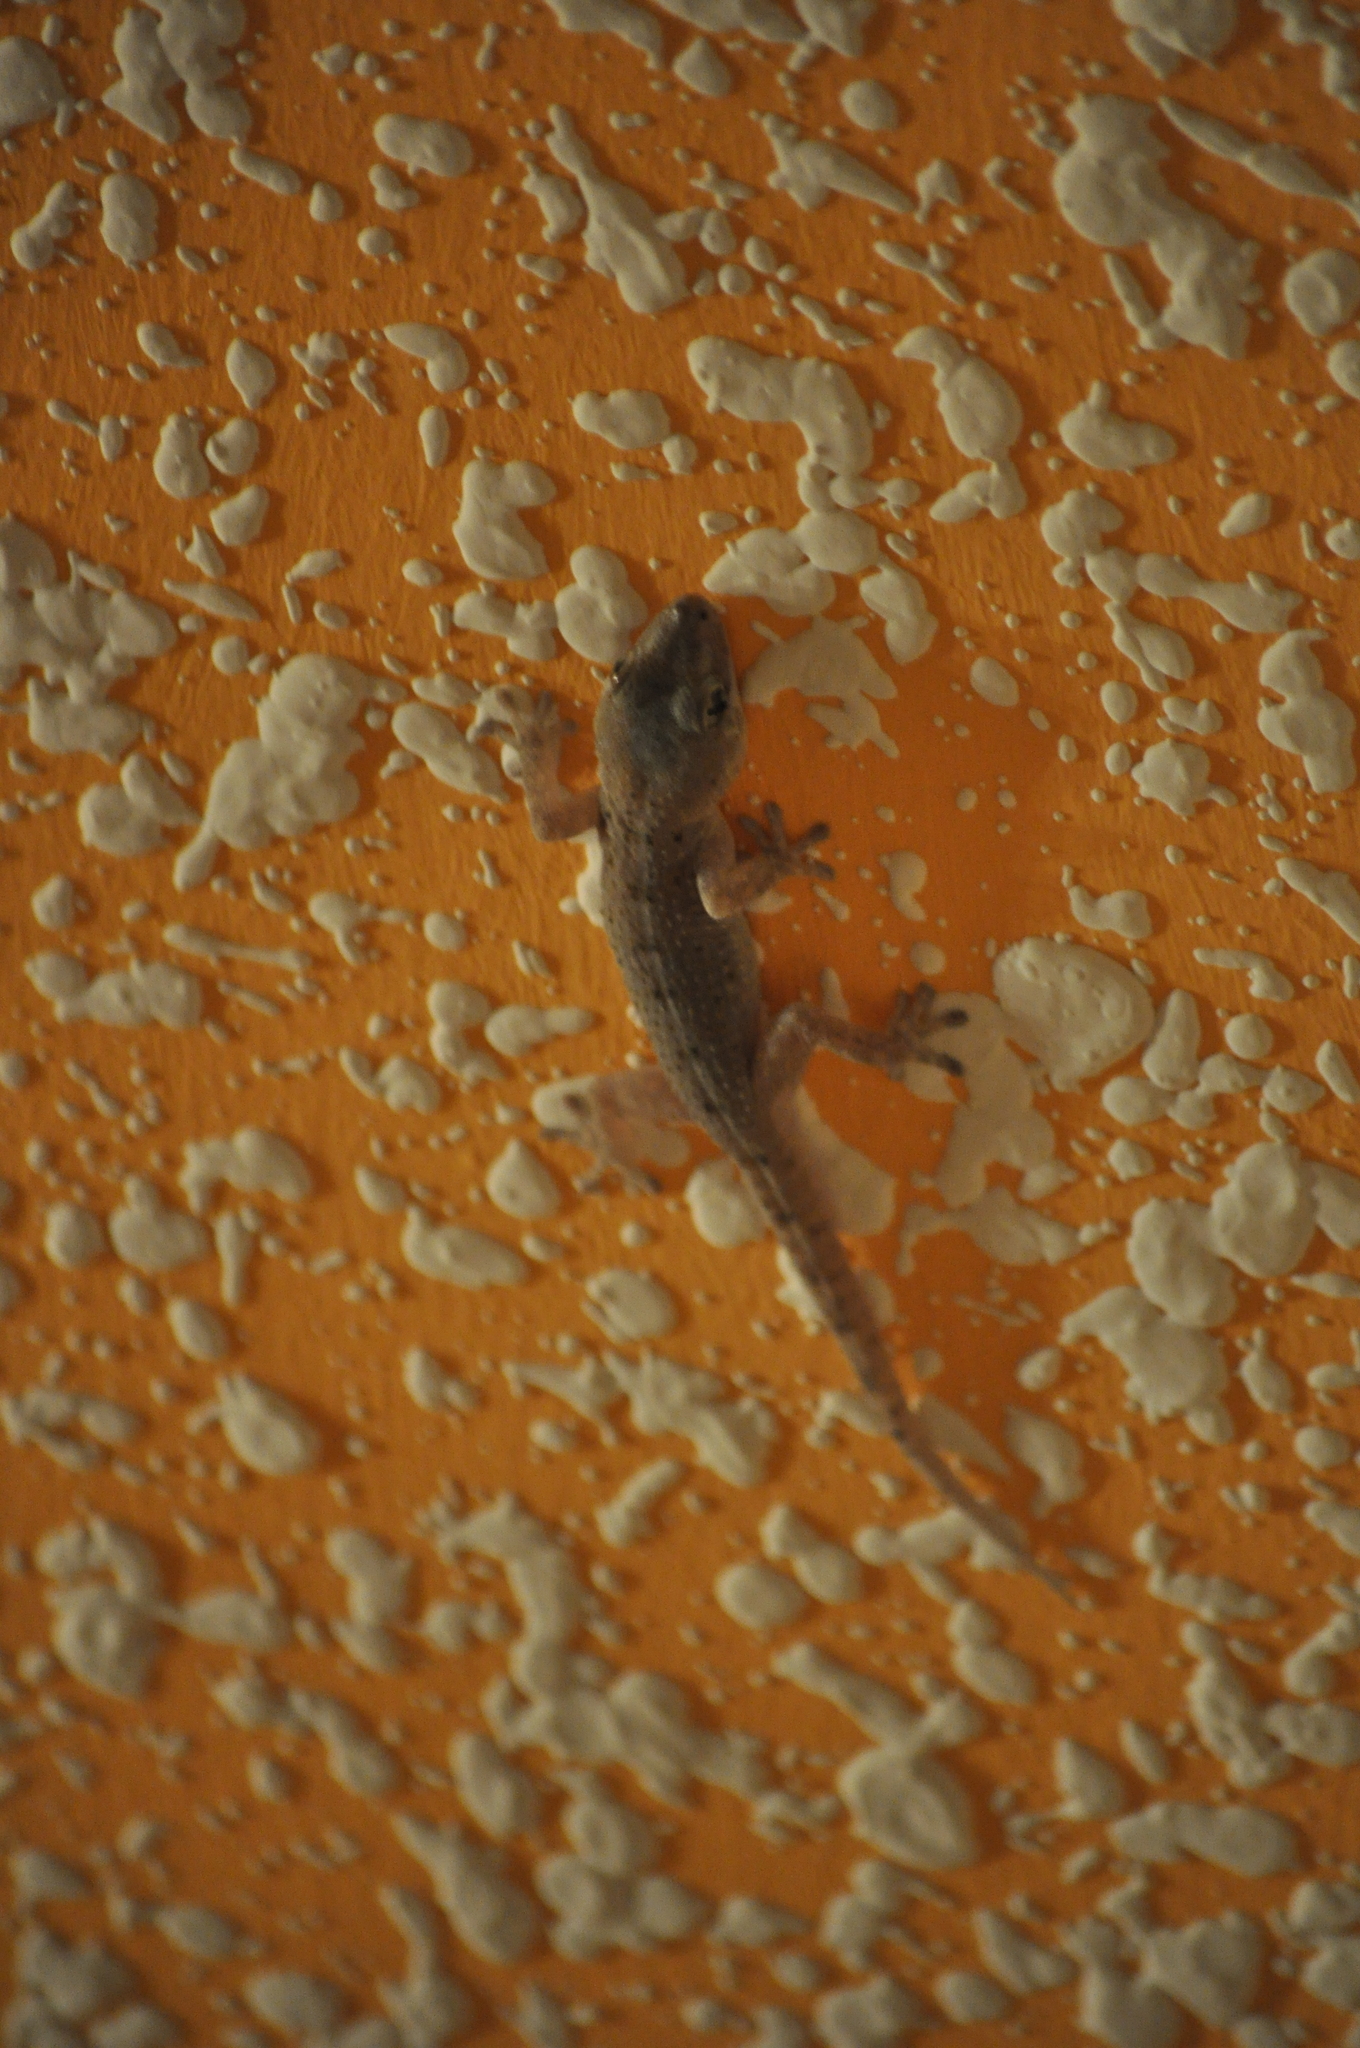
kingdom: Animalia
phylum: Chordata
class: Squamata
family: Phyllodactylidae
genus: Tarentola
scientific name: Tarentola delalandii
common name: Tenerife wall gecko
